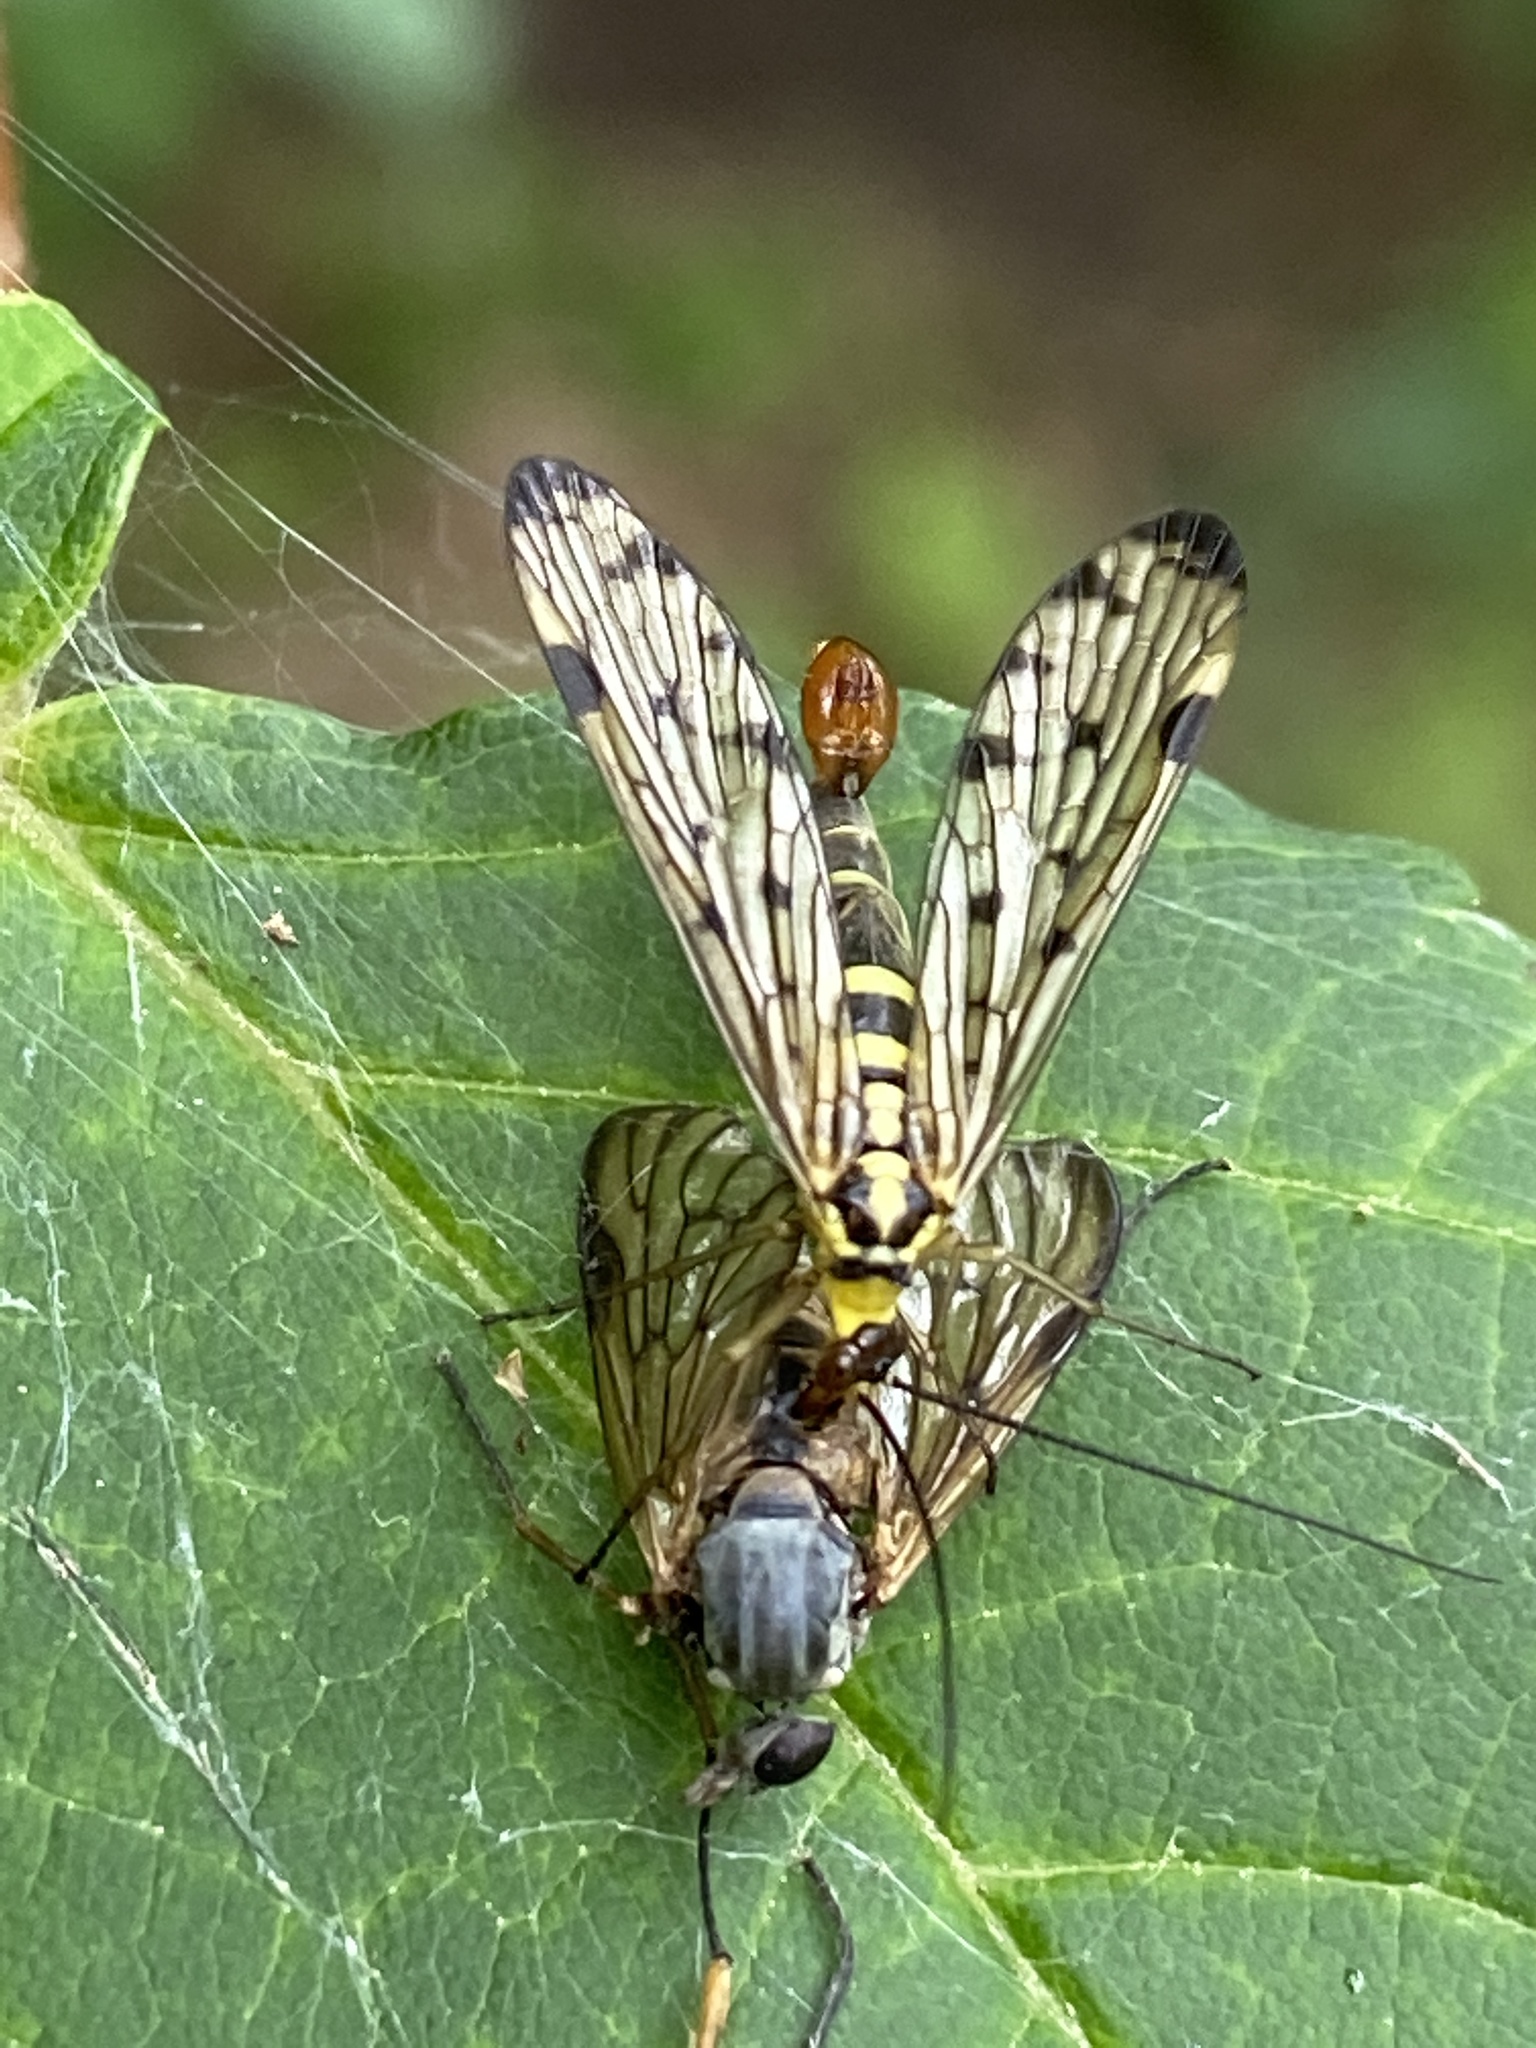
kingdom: Animalia
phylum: Arthropoda
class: Insecta
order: Mecoptera
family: Panorpidae
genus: Panorpa
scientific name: Panorpa germanica
